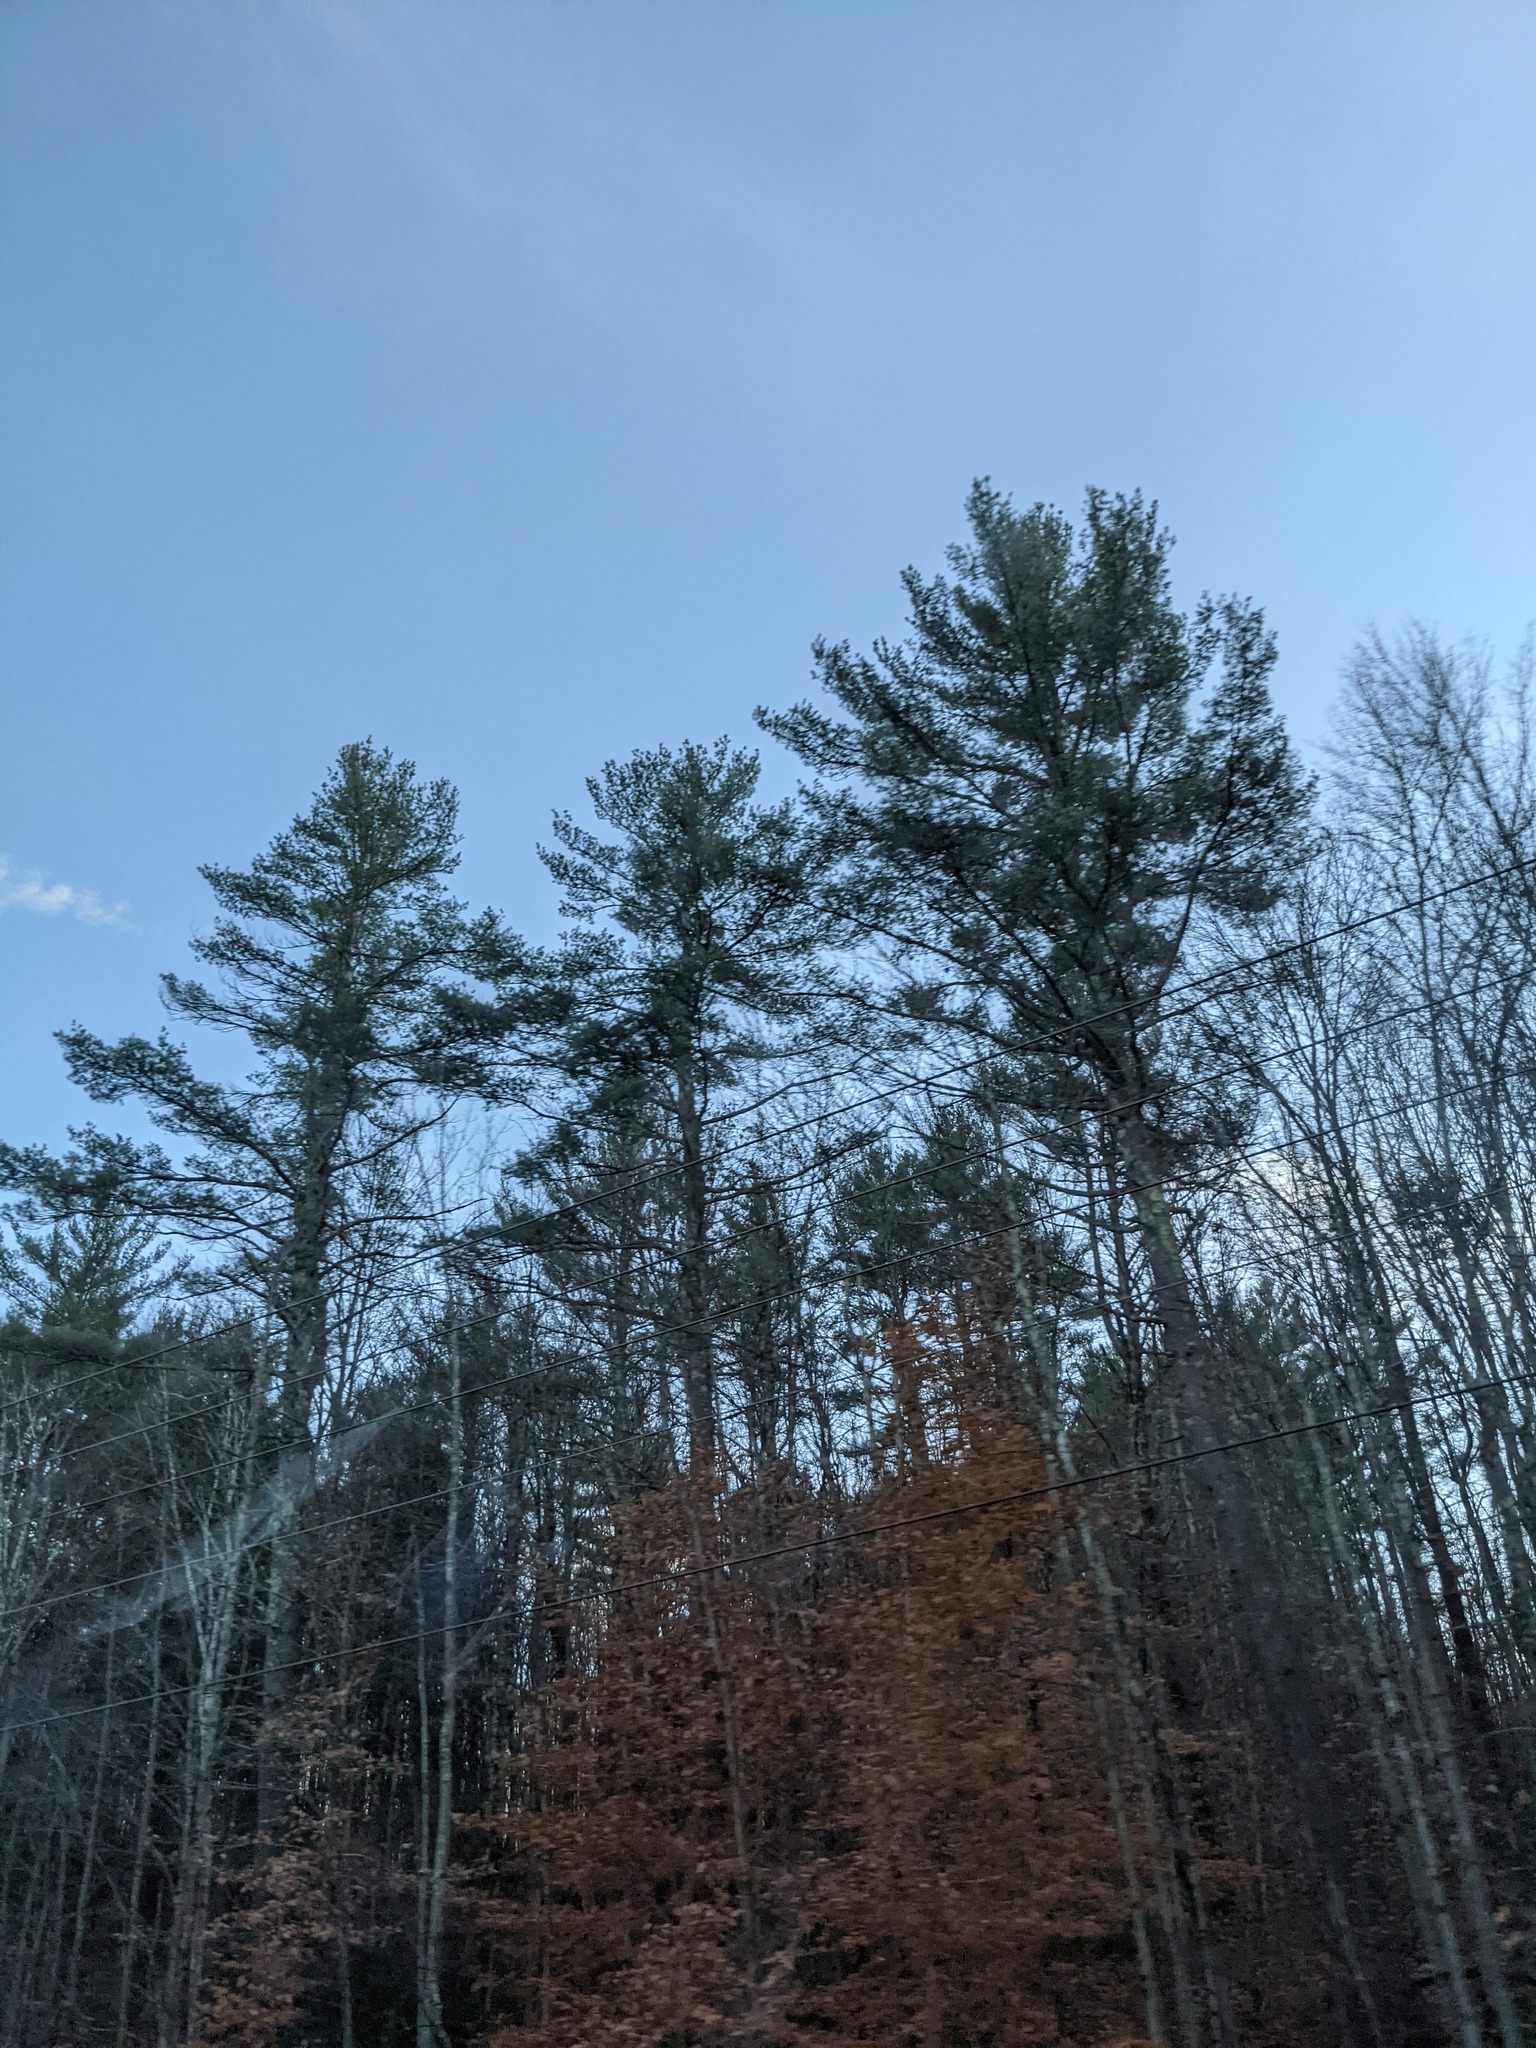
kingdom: Plantae
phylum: Tracheophyta
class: Pinopsida
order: Pinales
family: Pinaceae
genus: Pinus
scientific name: Pinus strobus
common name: Weymouth pine
